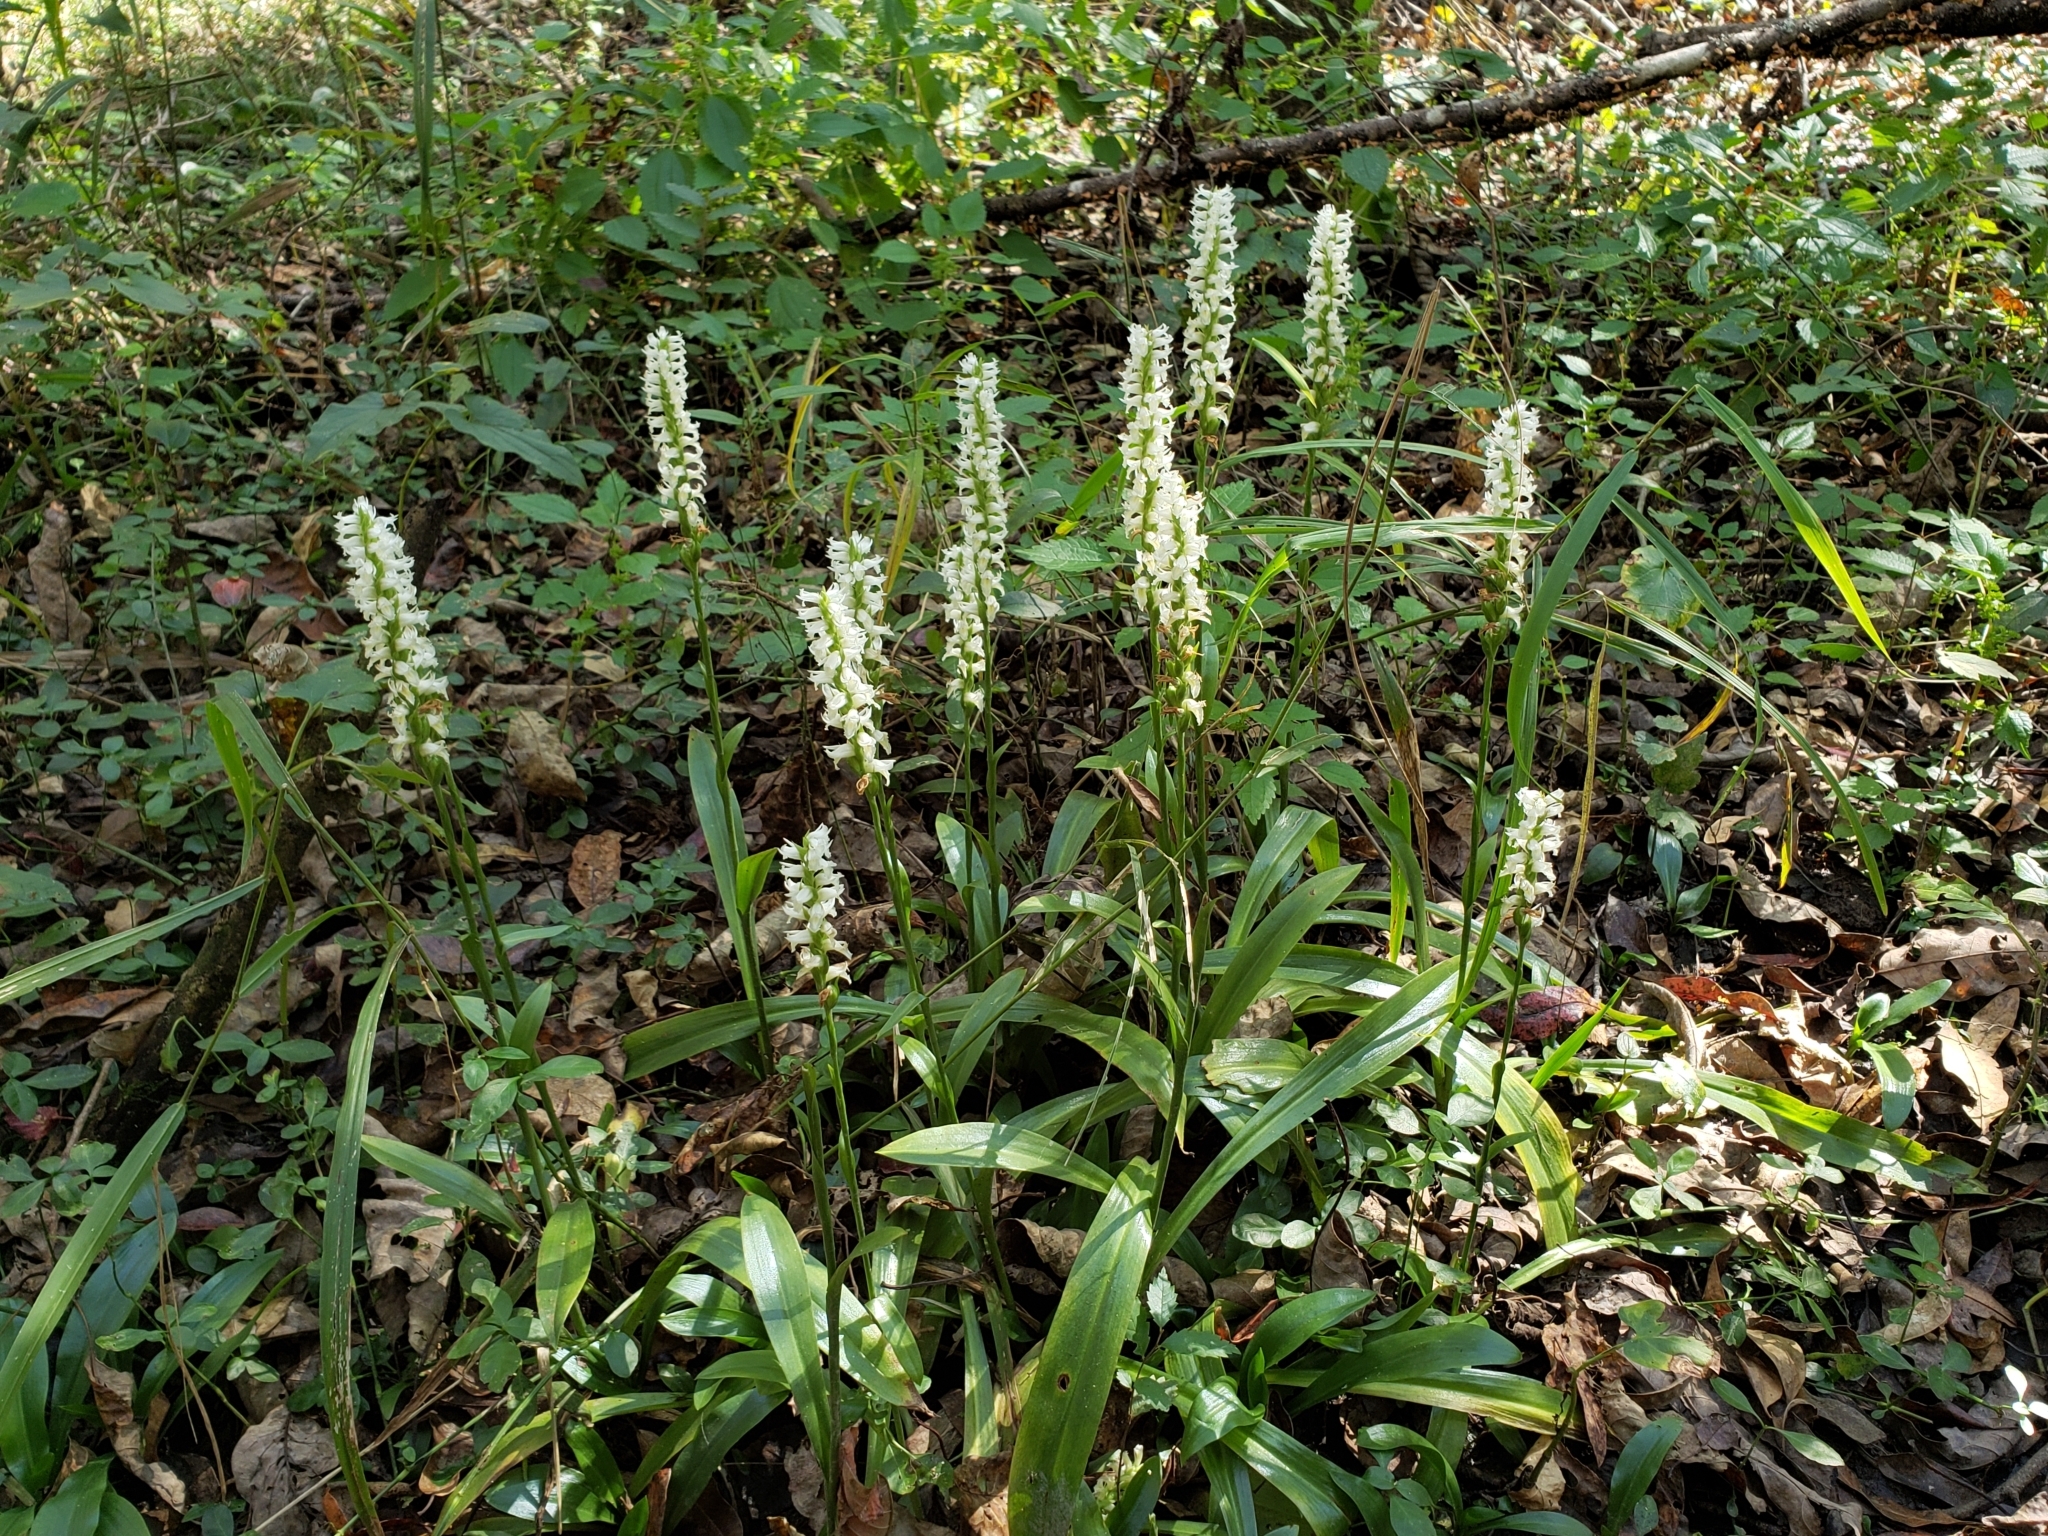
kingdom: Plantae
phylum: Tracheophyta
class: Liliopsida
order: Asparagales
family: Orchidaceae
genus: Spiranthes
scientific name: Spiranthes odorata
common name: Marsh ladies'-tresses
